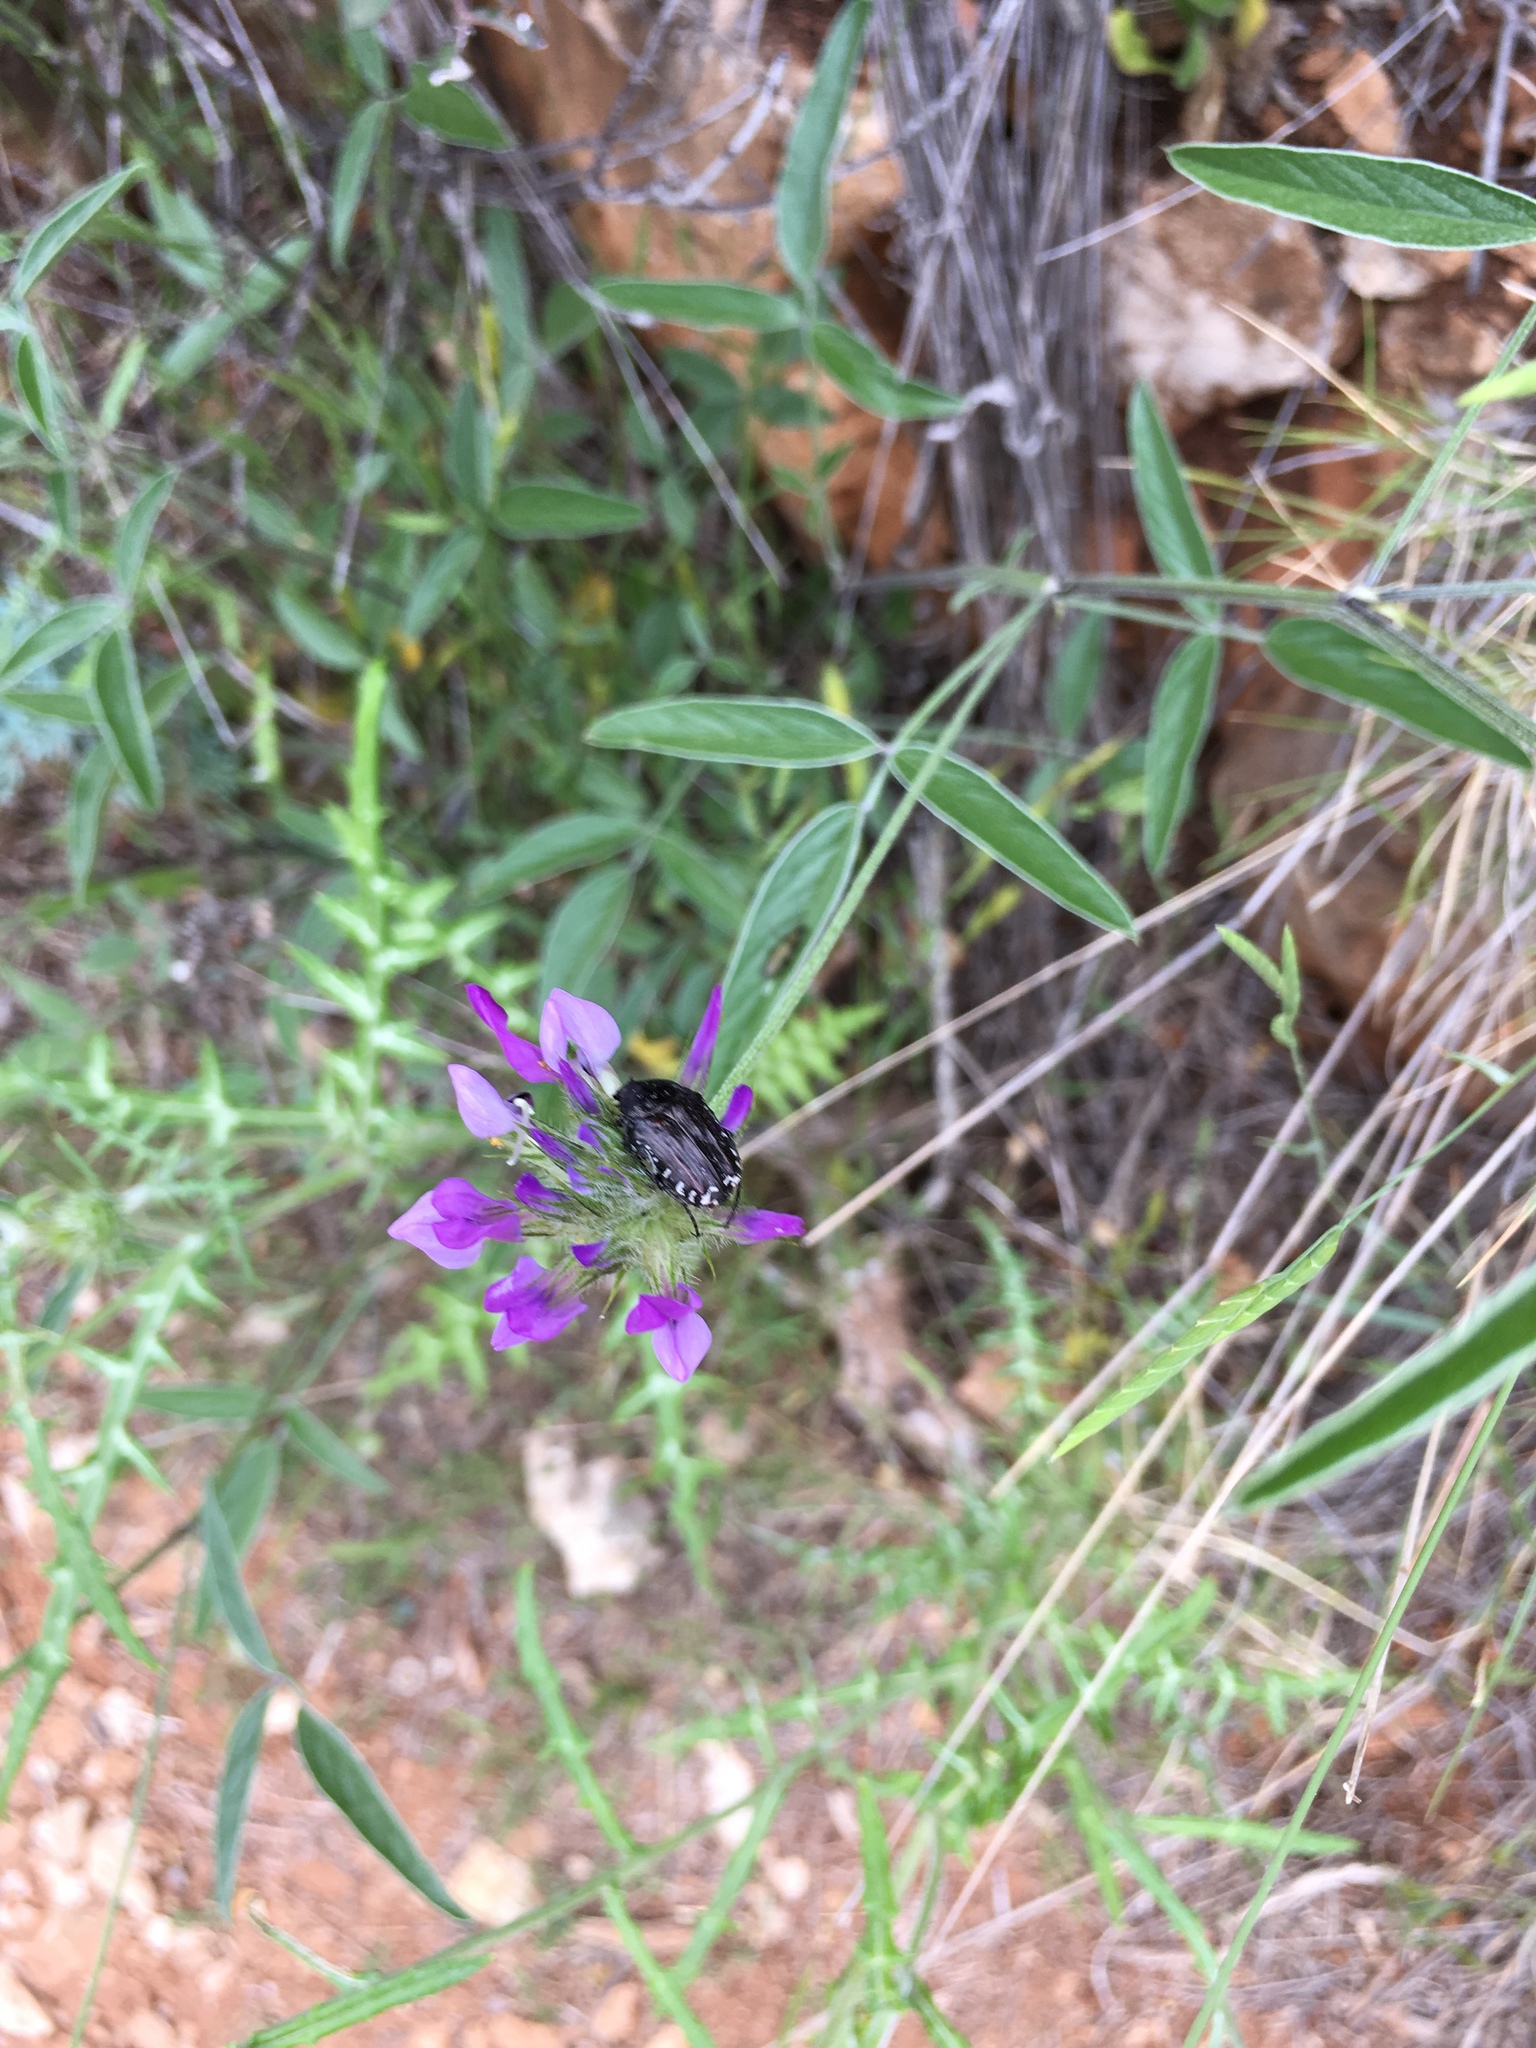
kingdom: Plantae
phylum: Tracheophyta
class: Magnoliopsida
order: Fabales
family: Fabaceae
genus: Bituminaria
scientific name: Bituminaria bituminosa
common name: Arabian pea
